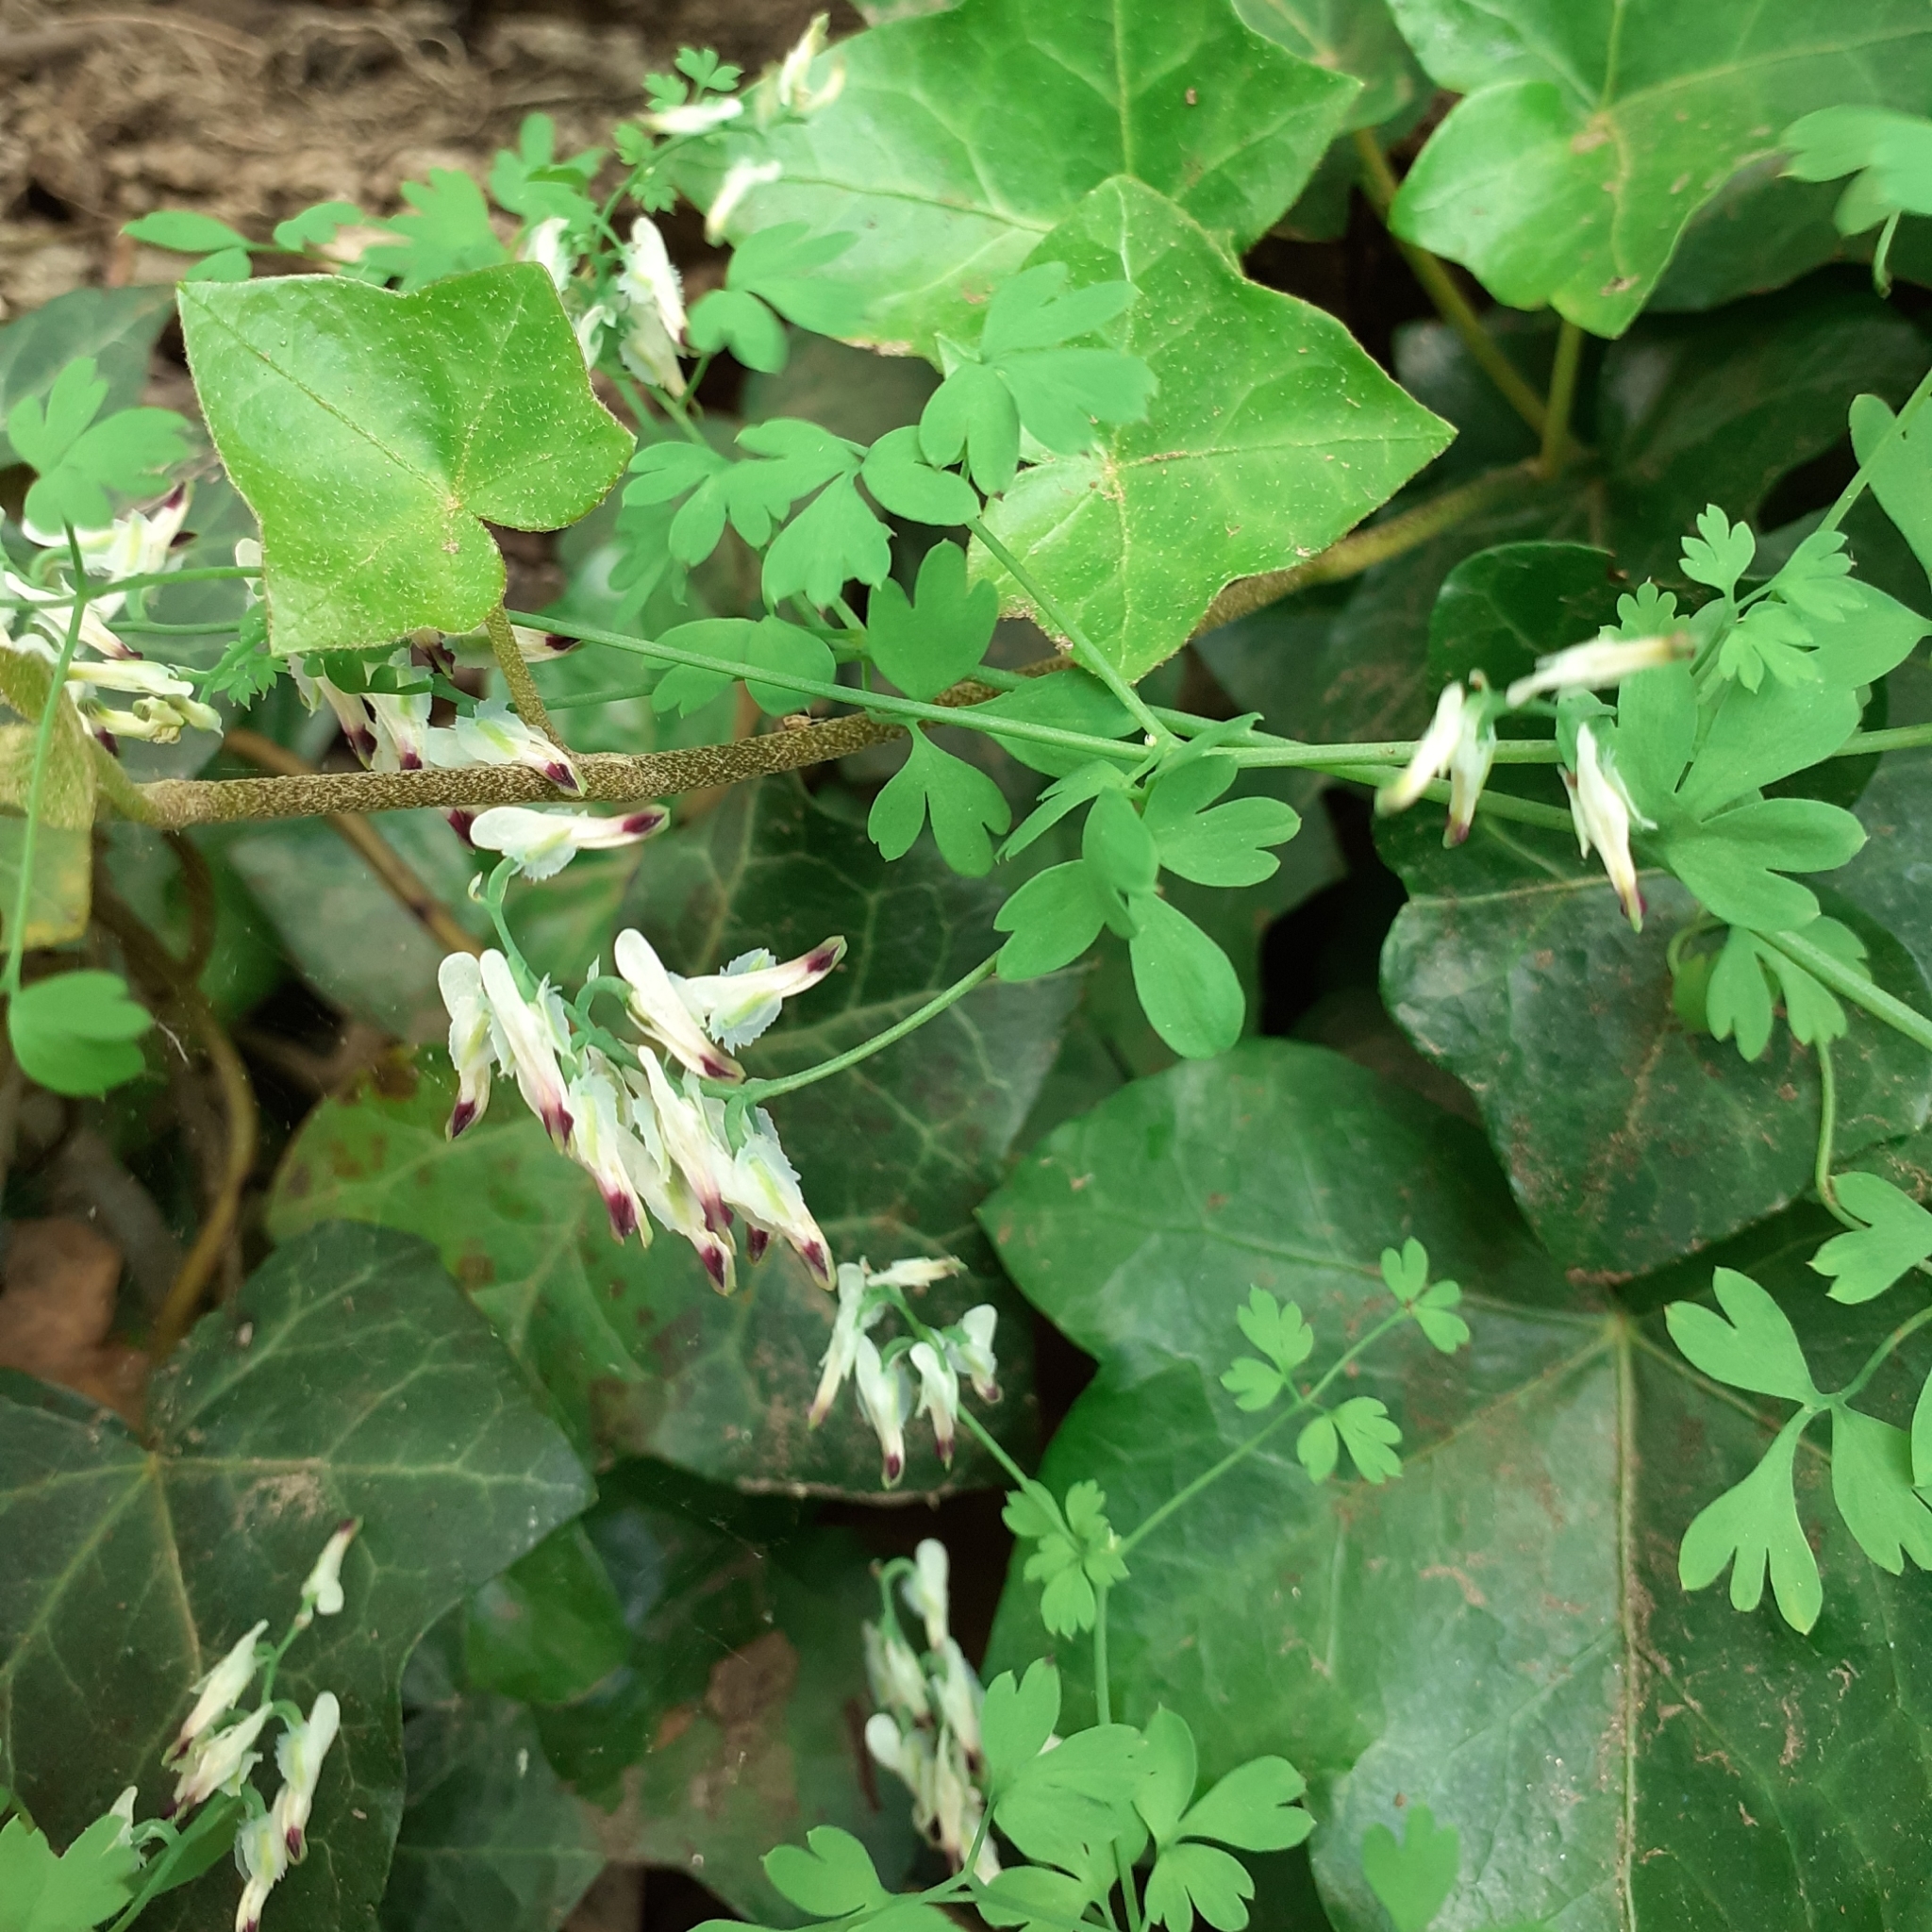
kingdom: Plantae
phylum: Tracheophyta
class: Magnoliopsida
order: Ranunculales
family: Papaveraceae
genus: Fumaria
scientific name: Fumaria capreolata
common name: White ramping-fumitory
